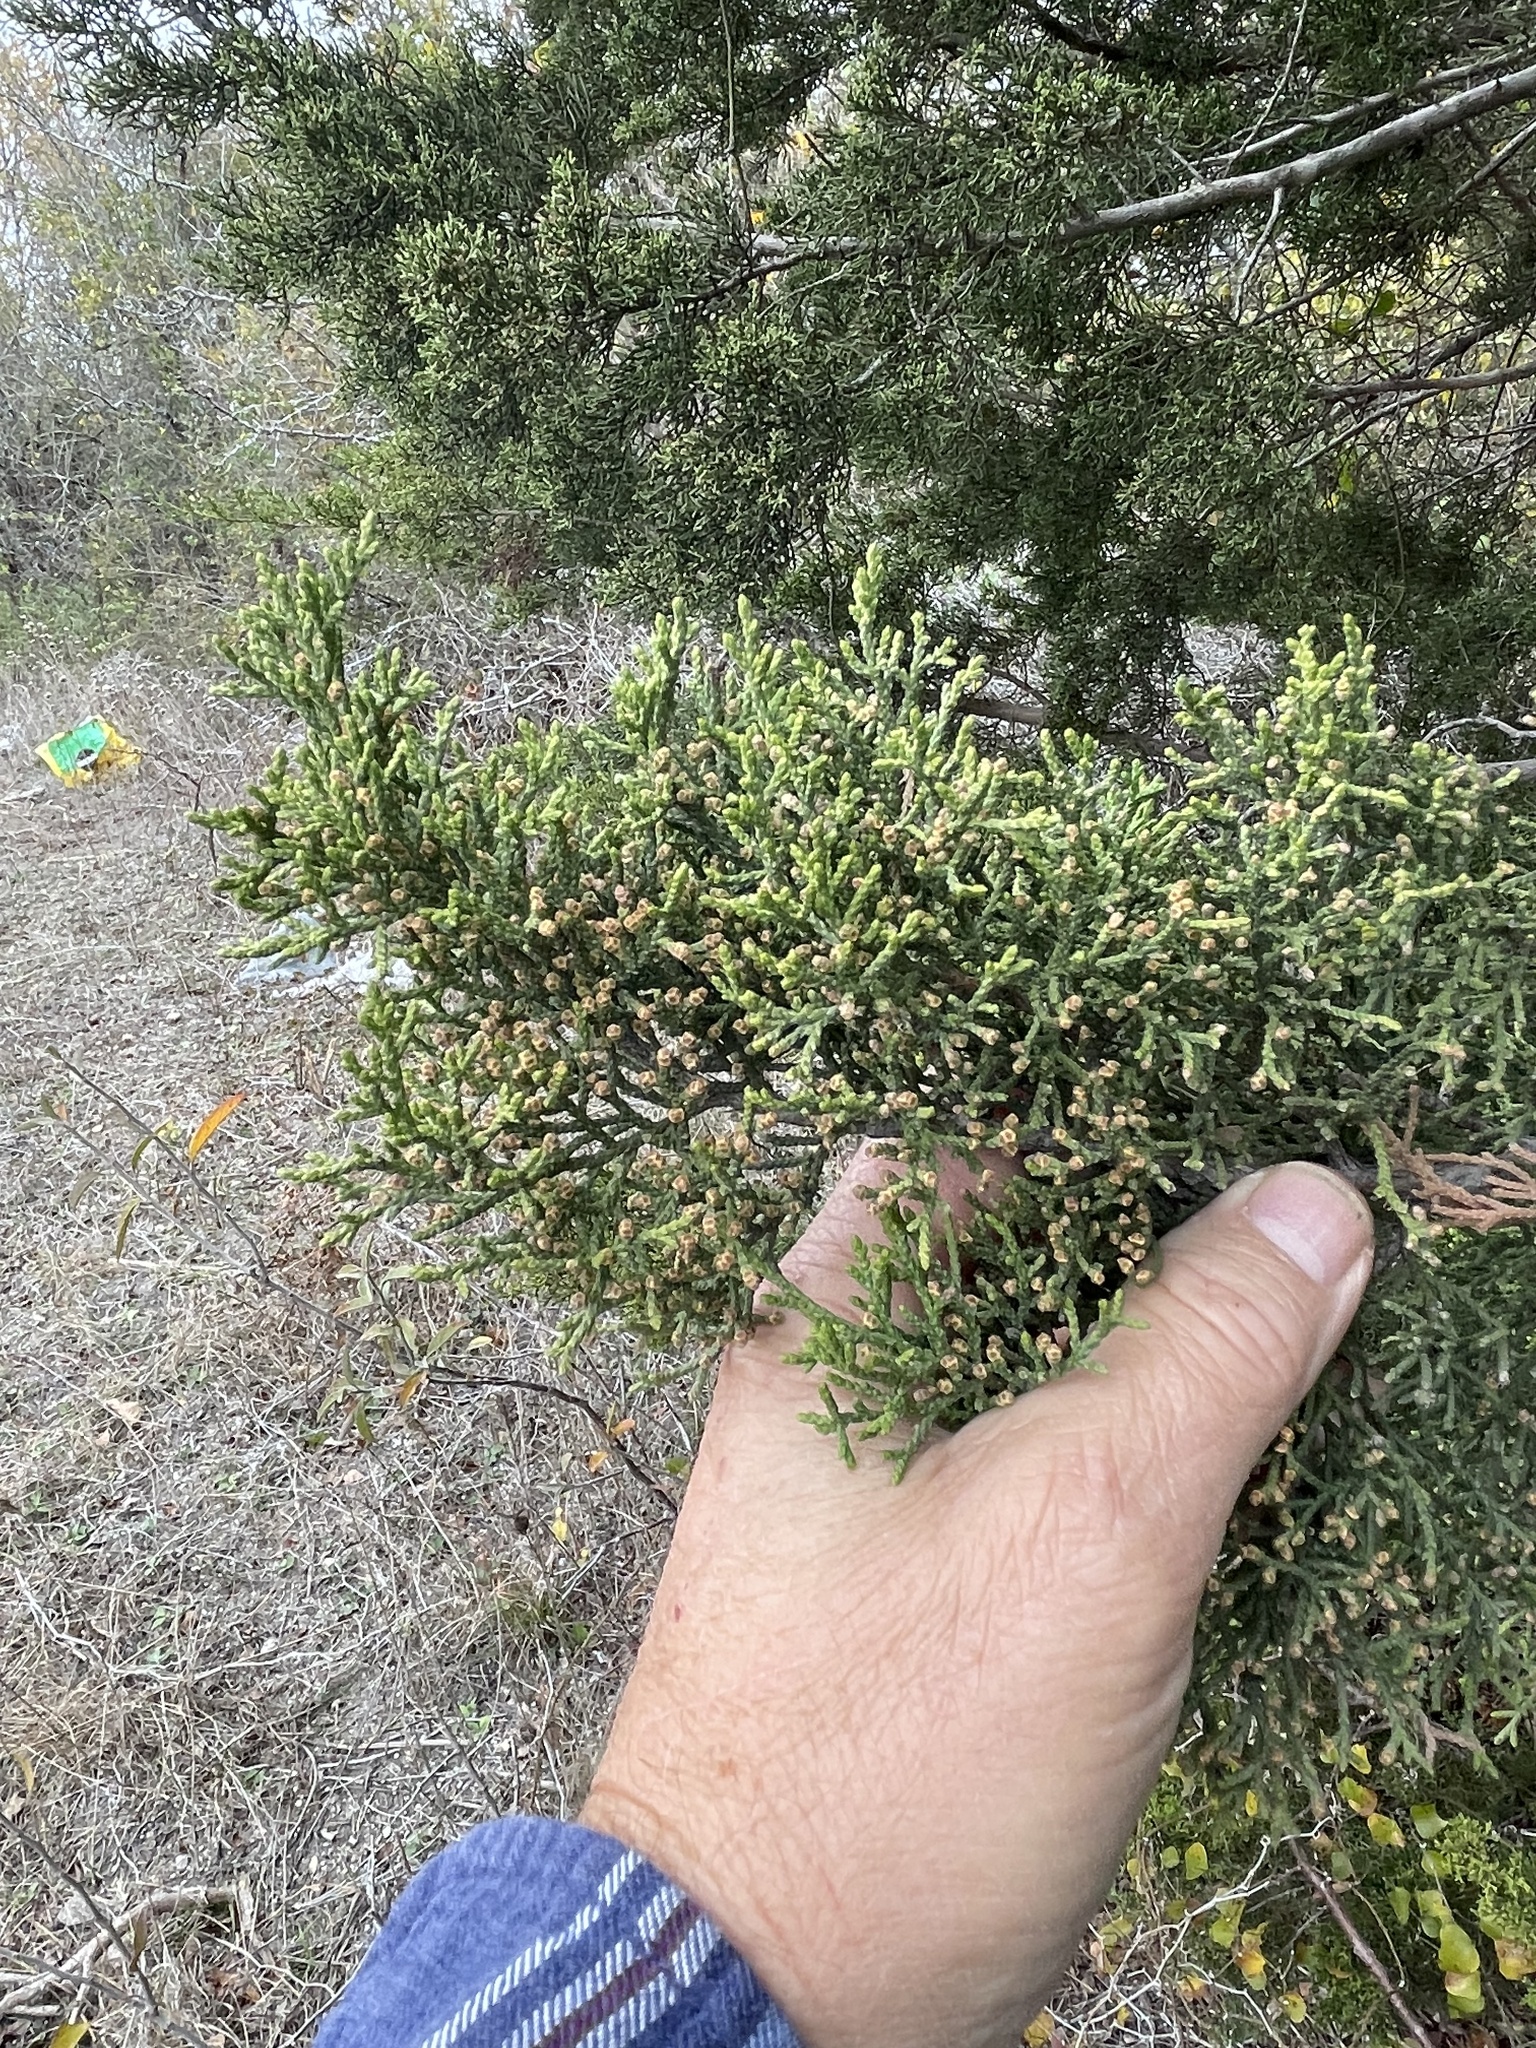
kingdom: Plantae
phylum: Tracheophyta
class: Pinopsida
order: Pinales
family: Cupressaceae
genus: Juniperus
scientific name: Juniperus ashei
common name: Mexican juniper
